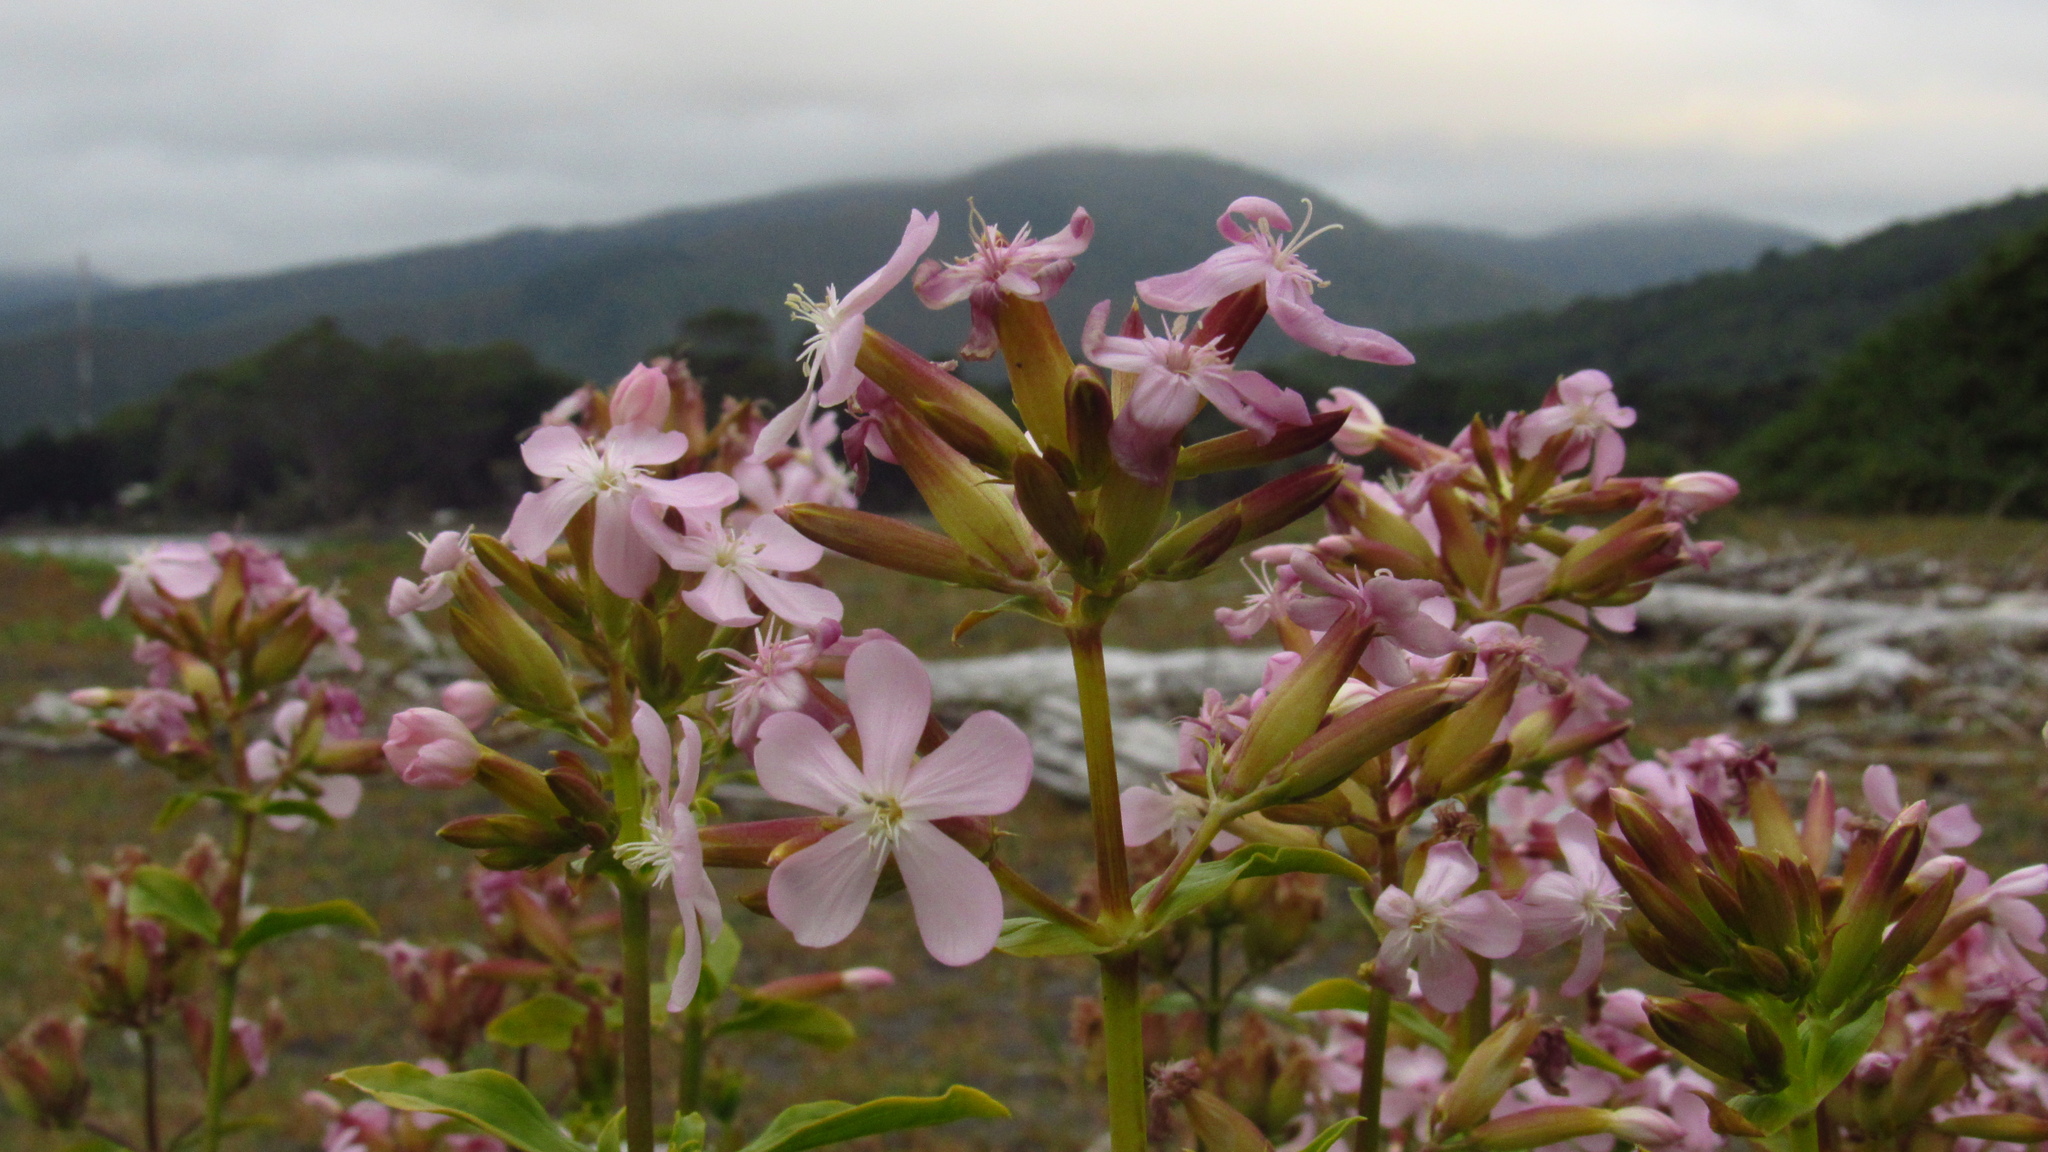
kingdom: Plantae
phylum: Tracheophyta
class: Magnoliopsida
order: Caryophyllales
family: Caryophyllaceae
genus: Saponaria
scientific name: Saponaria officinalis
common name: Soapwort
